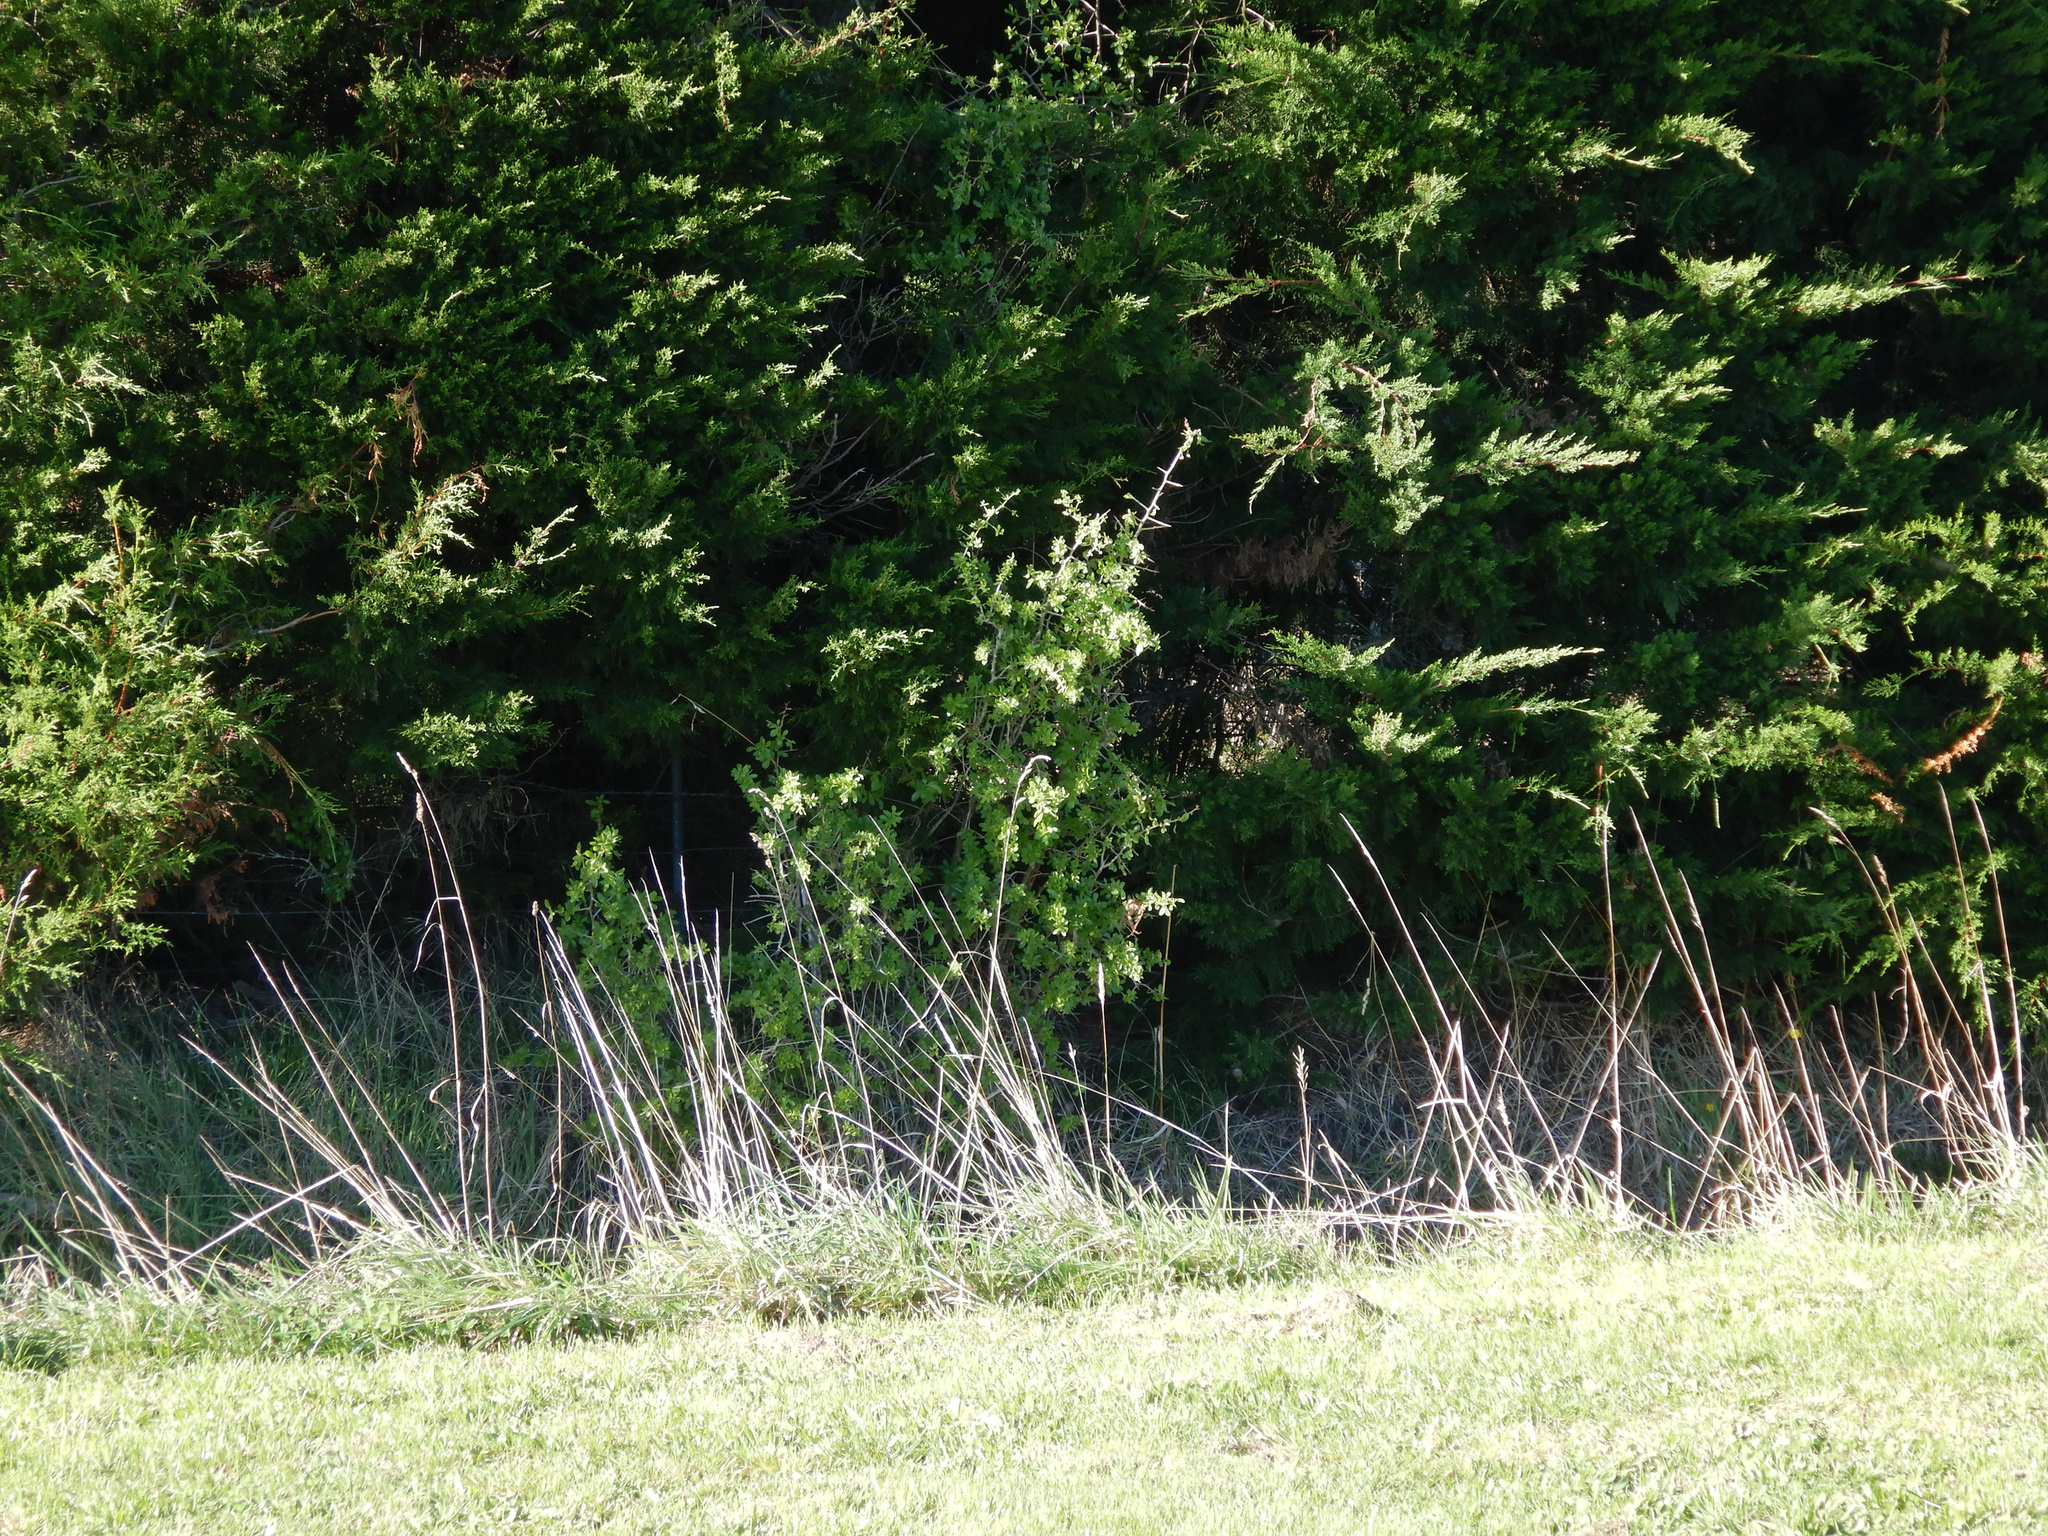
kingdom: Plantae
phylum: Tracheophyta
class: Magnoliopsida
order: Solanales
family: Solanaceae
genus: Lycium
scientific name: Lycium ferocissimum
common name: African boxthorn
